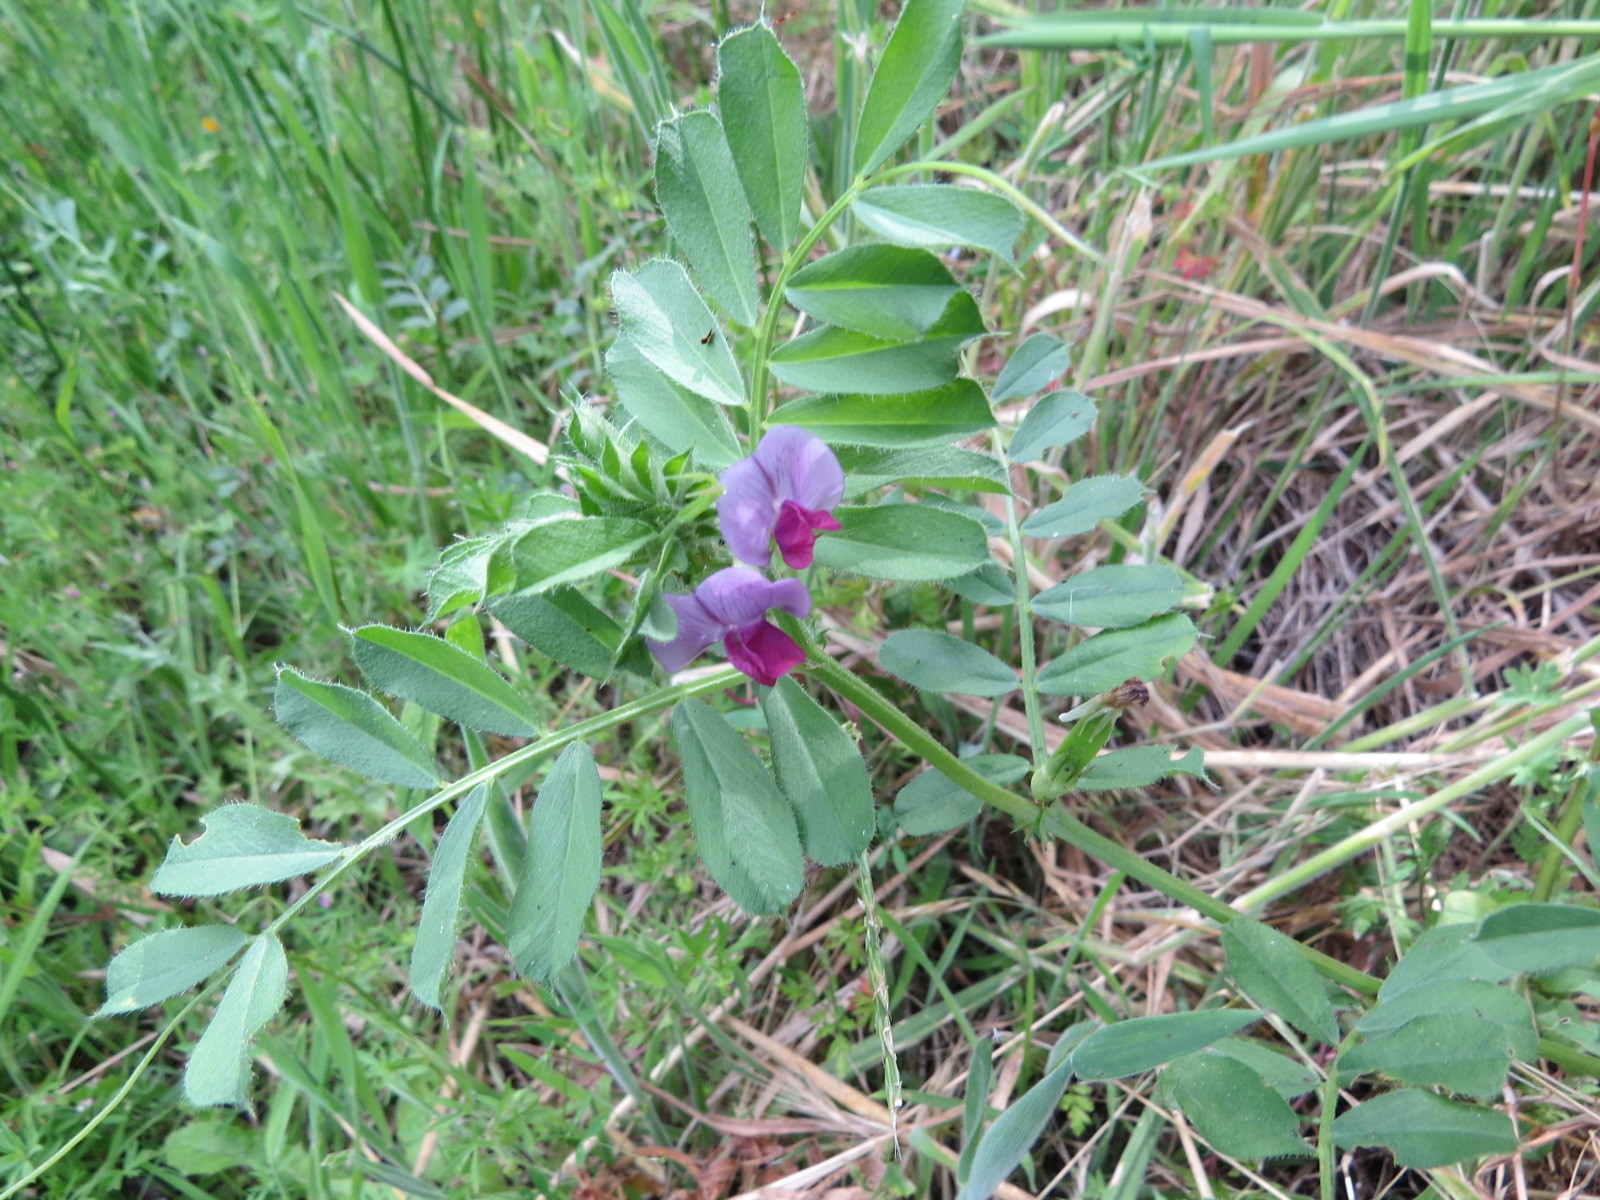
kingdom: Plantae
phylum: Tracheophyta
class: Magnoliopsida
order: Fabales
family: Fabaceae
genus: Vicia
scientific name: Vicia sativa
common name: Garden vetch
